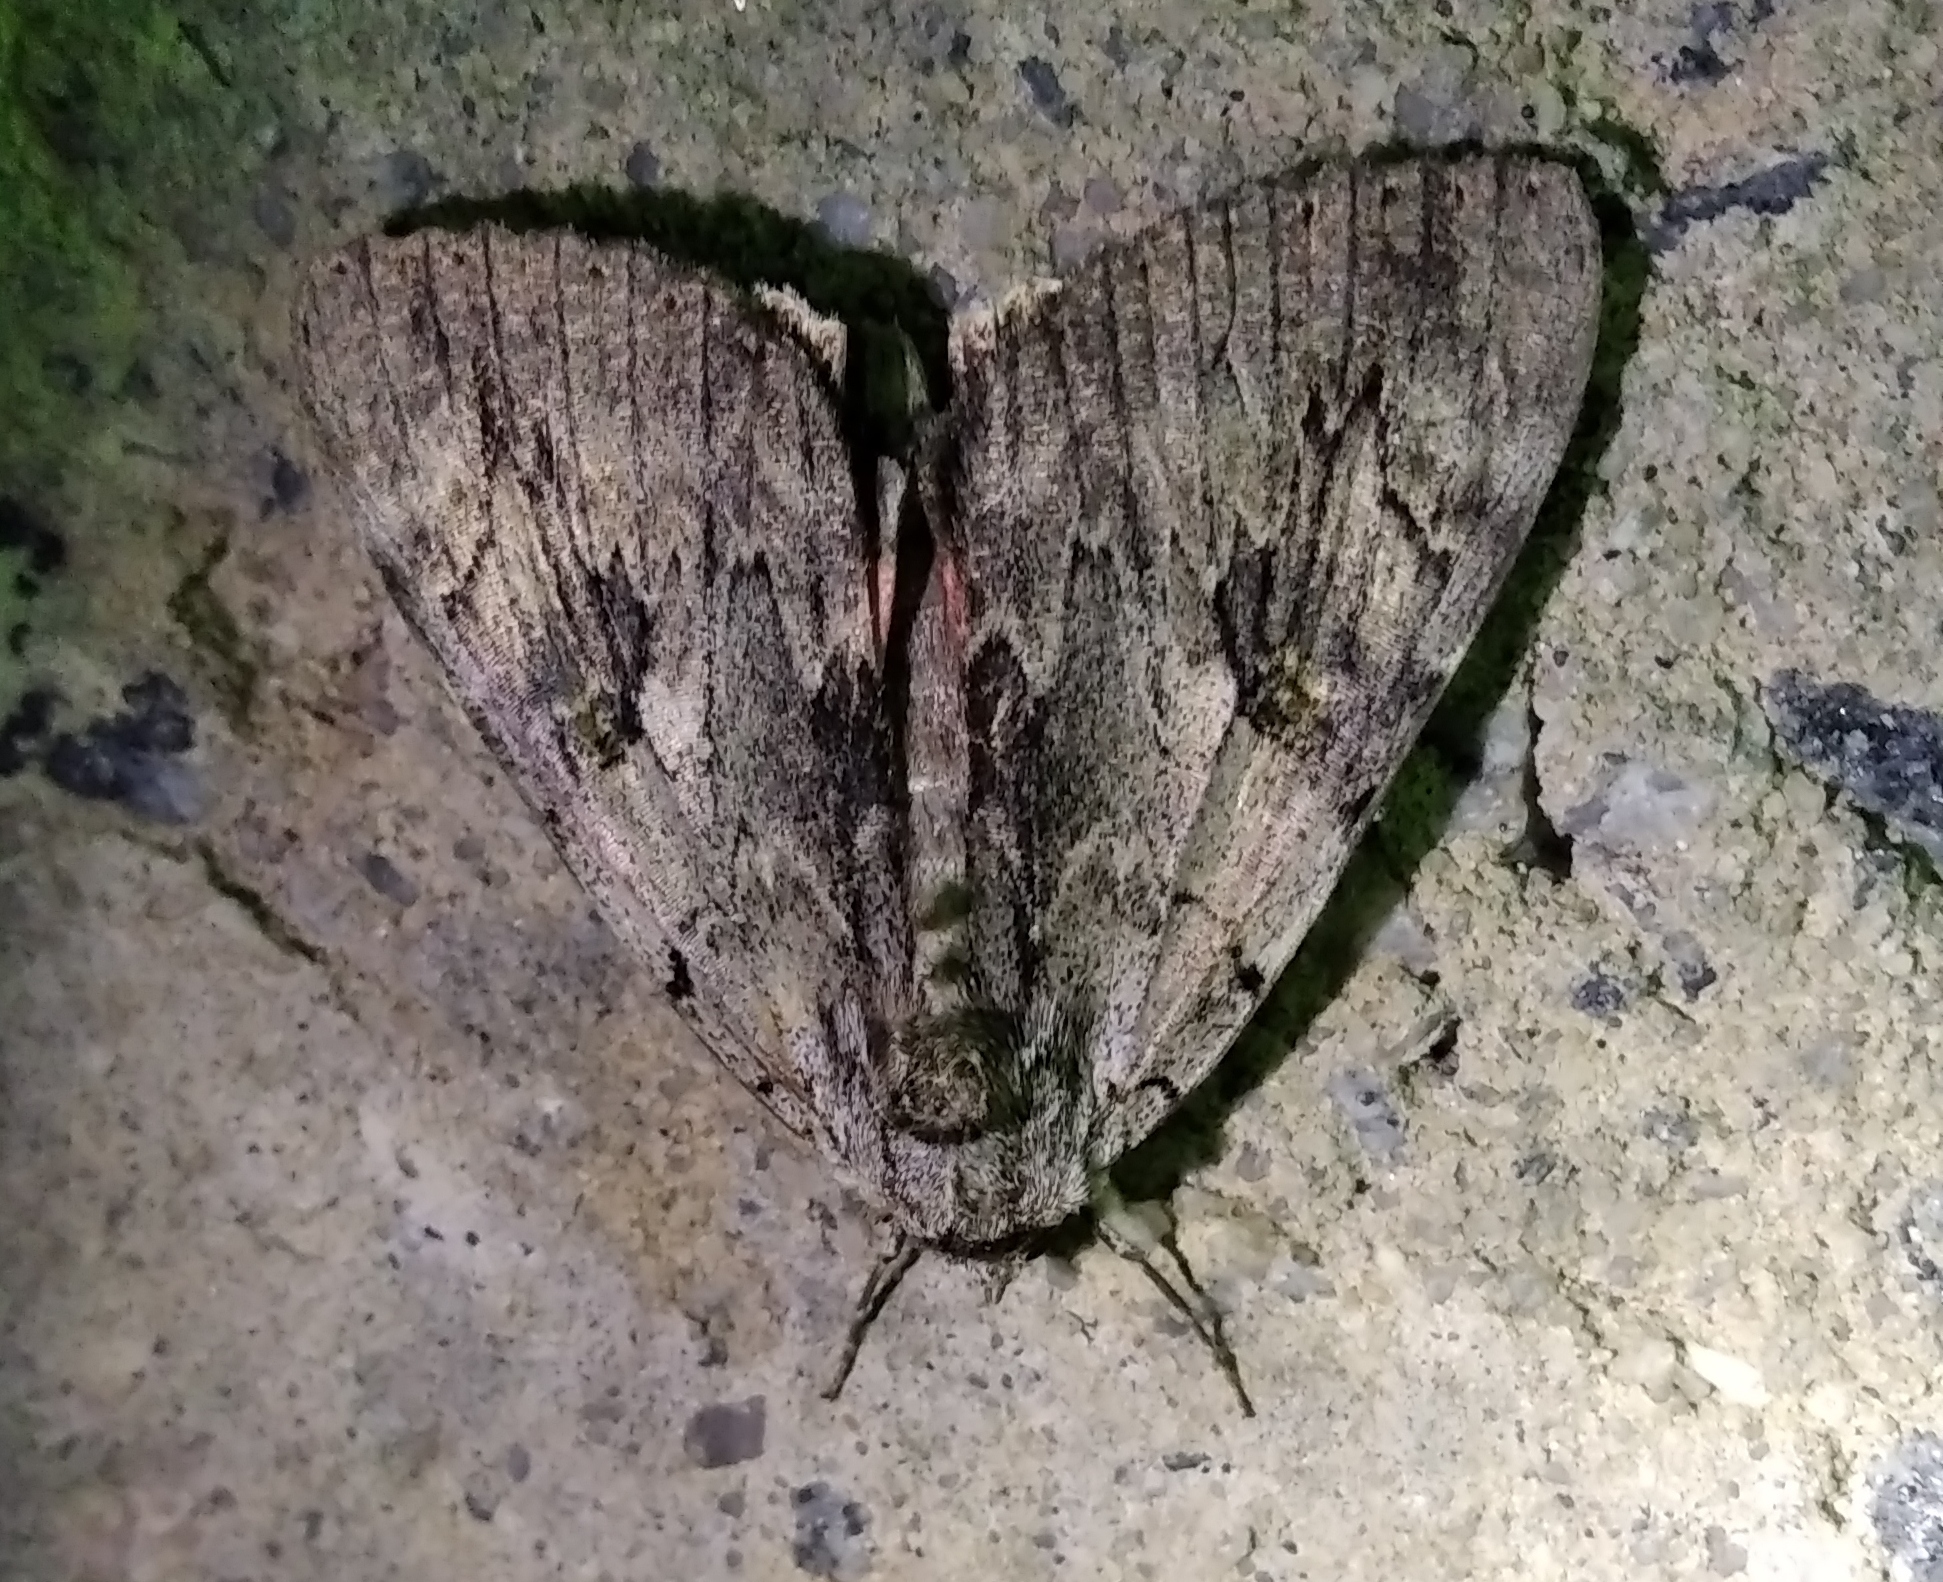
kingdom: Animalia
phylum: Arthropoda
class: Insecta
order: Lepidoptera
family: Erebidae
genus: Catocala
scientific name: Catocala electa
